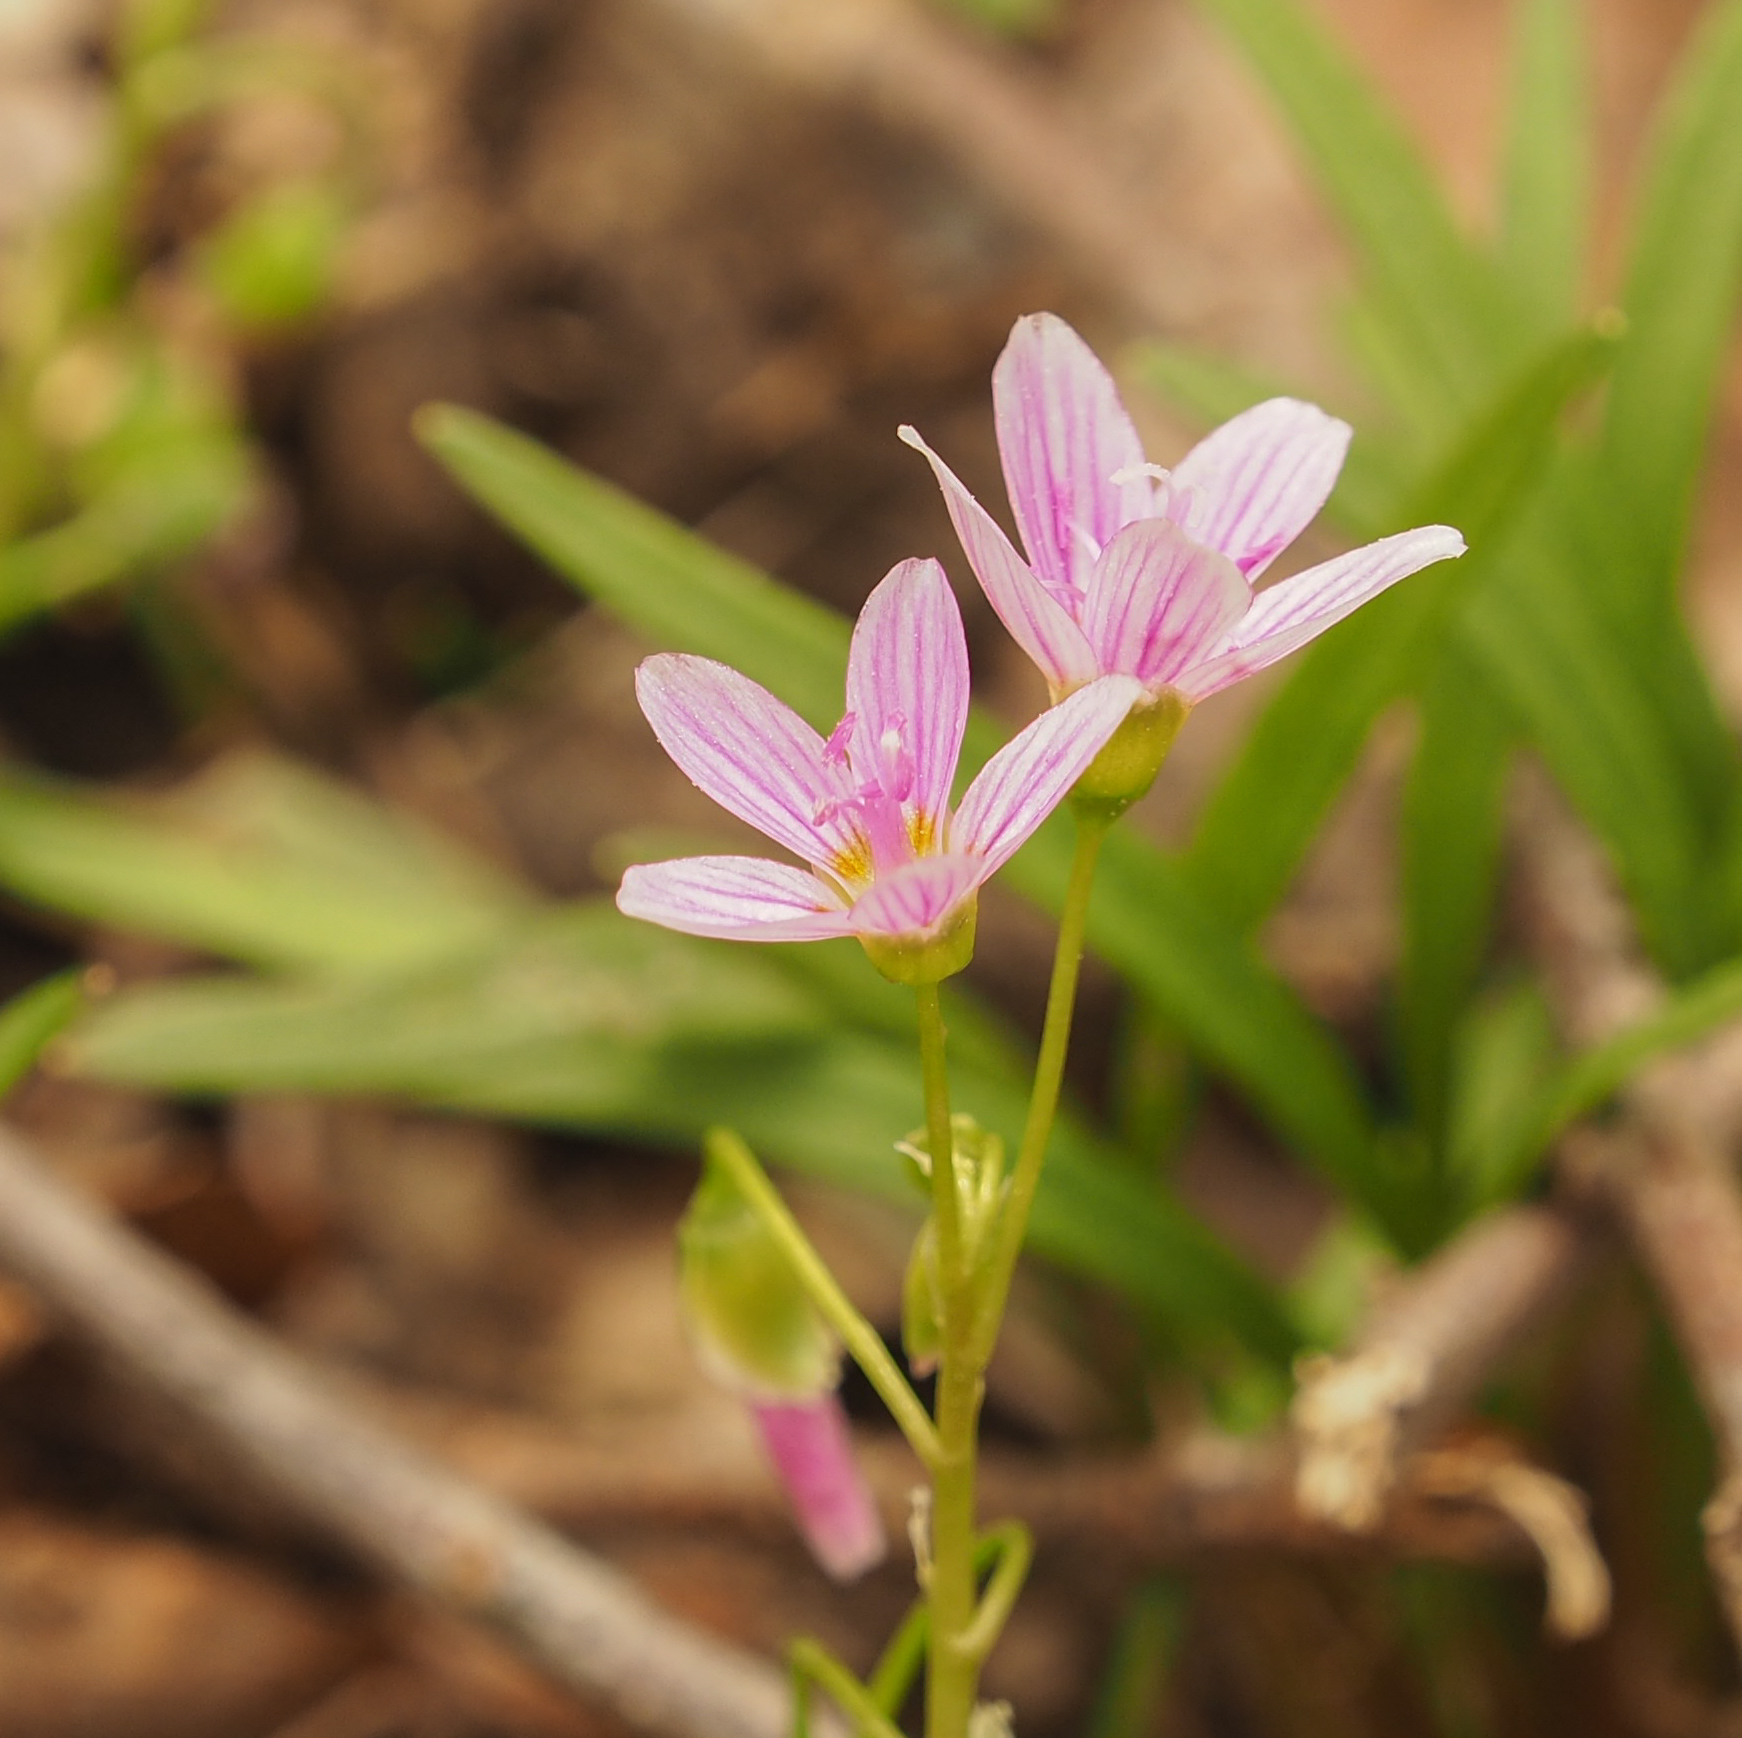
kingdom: Plantae
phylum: Tracheophyta
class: Magnoliopsida
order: Caryophyllales
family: Montiaceae
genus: Claytonia
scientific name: Claytonia virginica
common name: Virginia springbeauty
